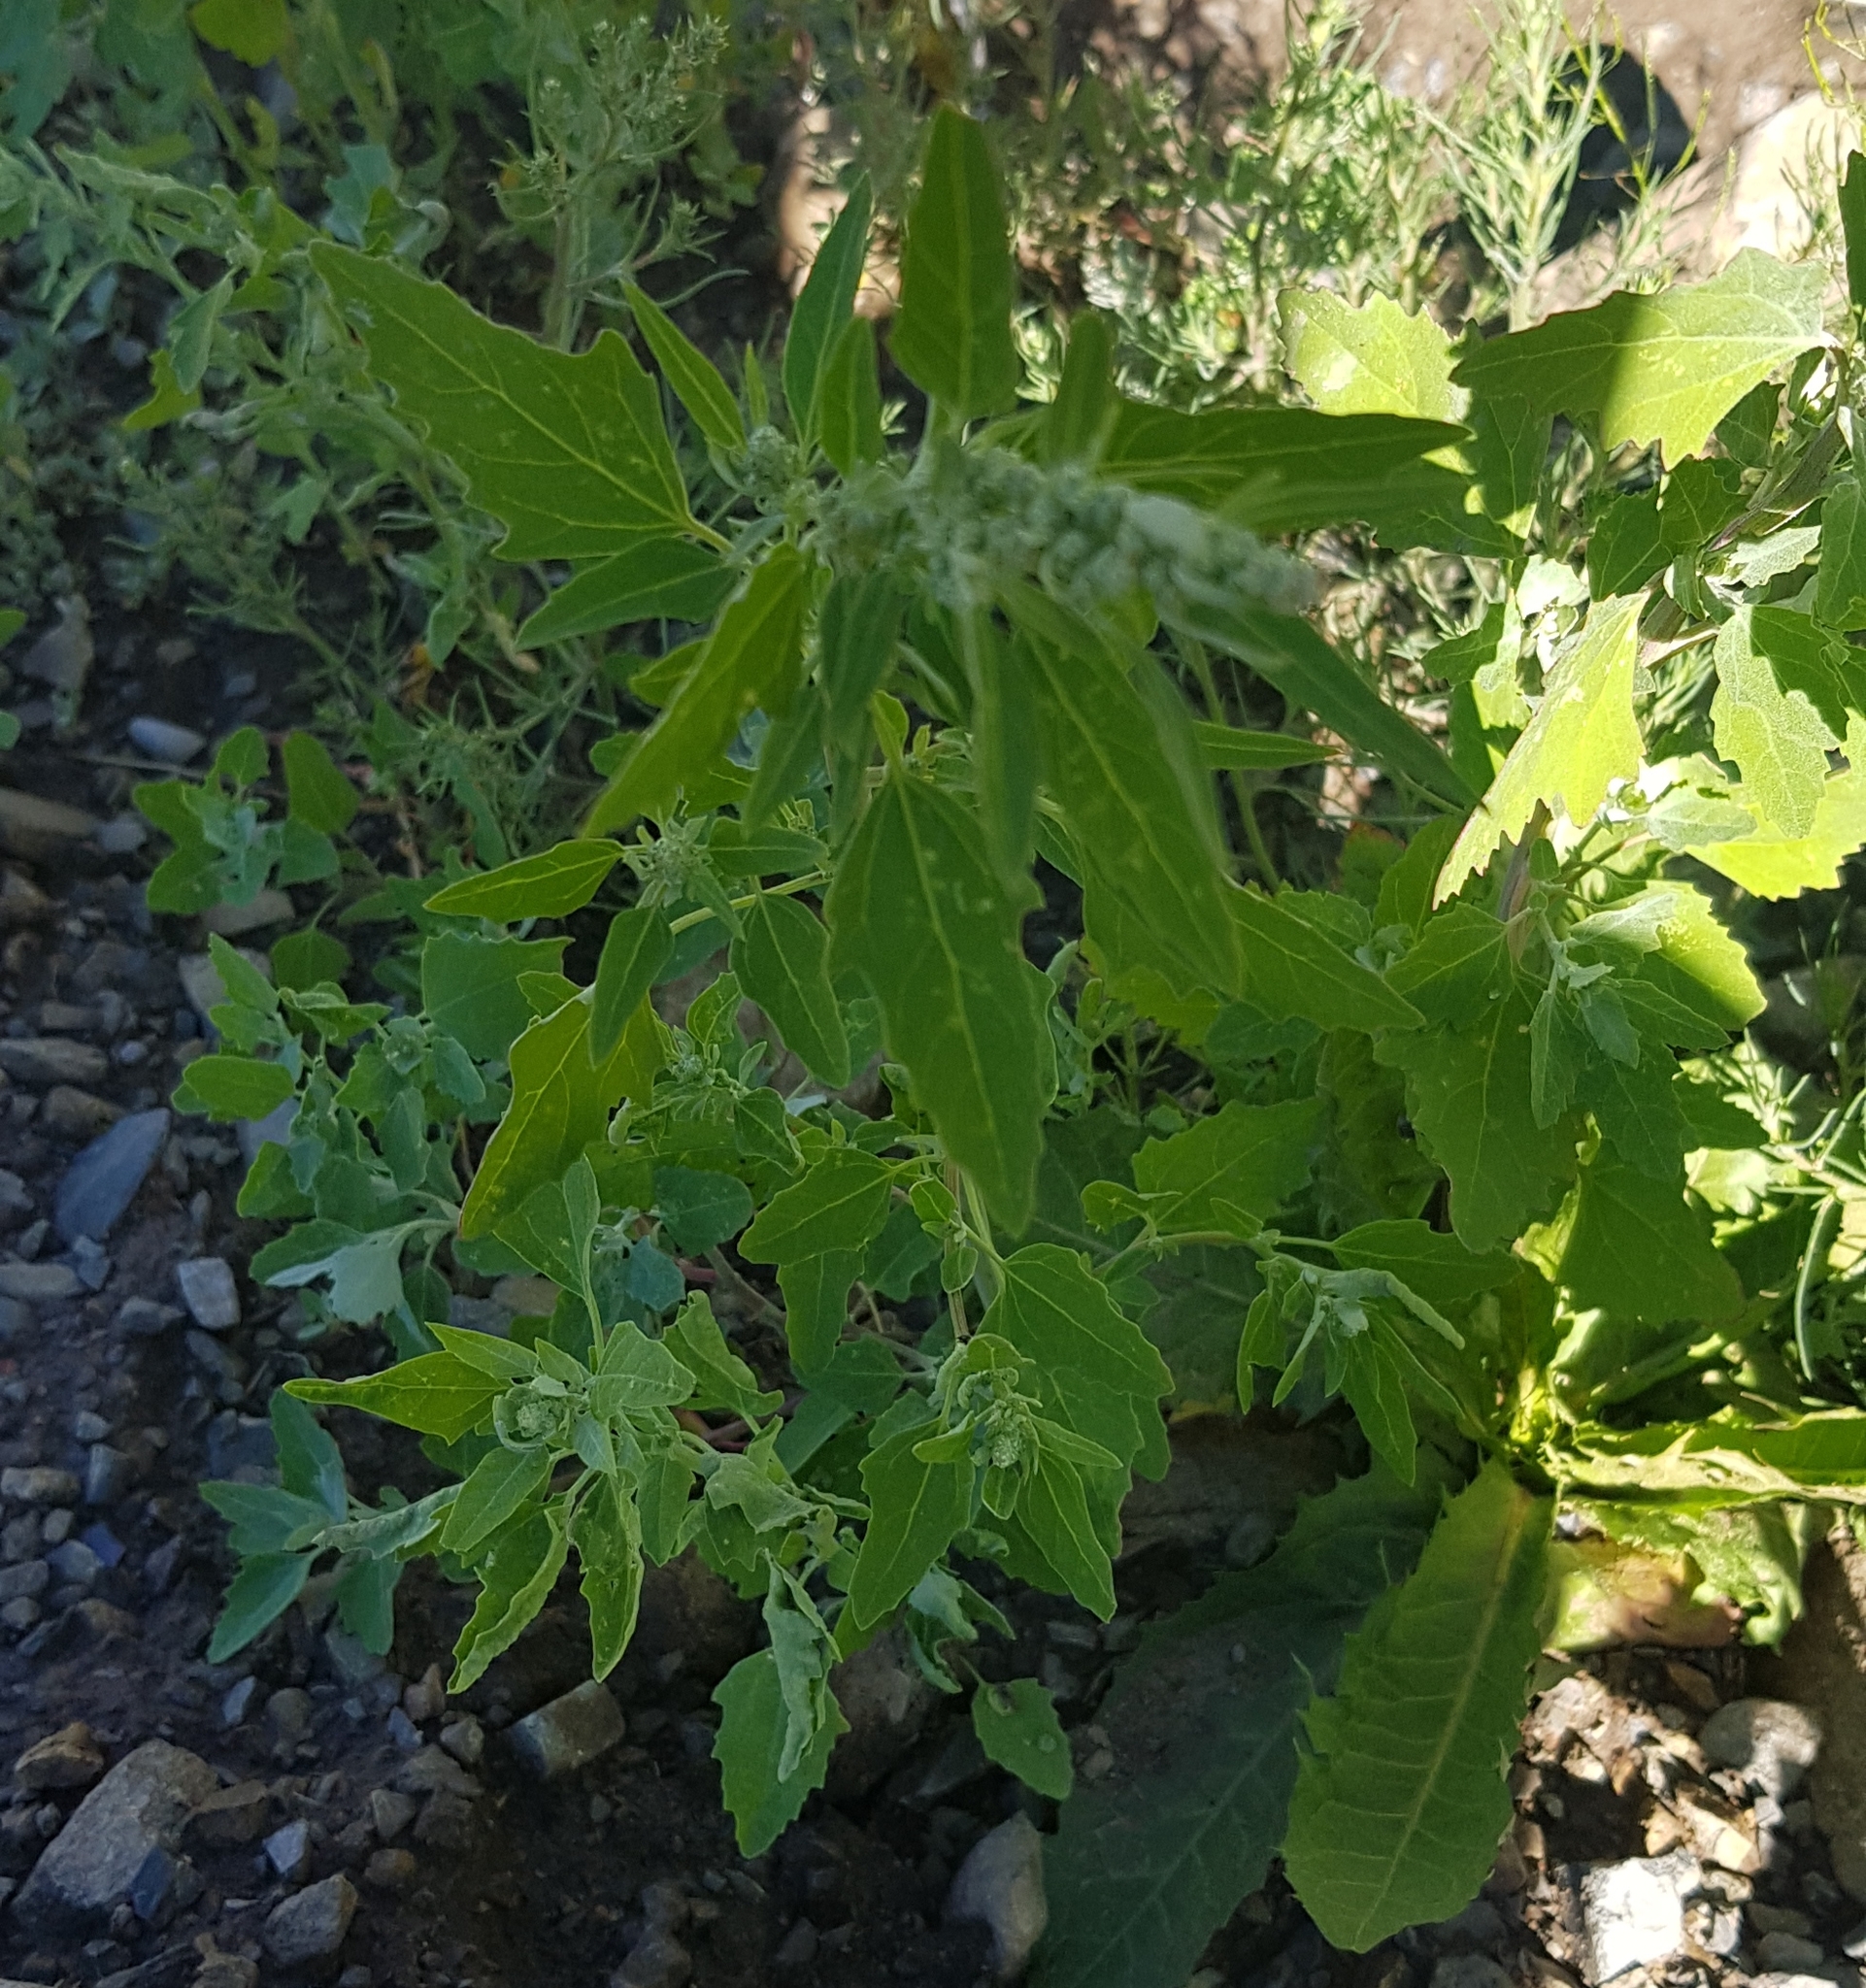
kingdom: Plantae
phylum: Tracheophyta
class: Magnoliopsida
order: Caryophyllales
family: Amaranthaceae
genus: Chenopodium
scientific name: Chenopodium album
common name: Fat-hen
